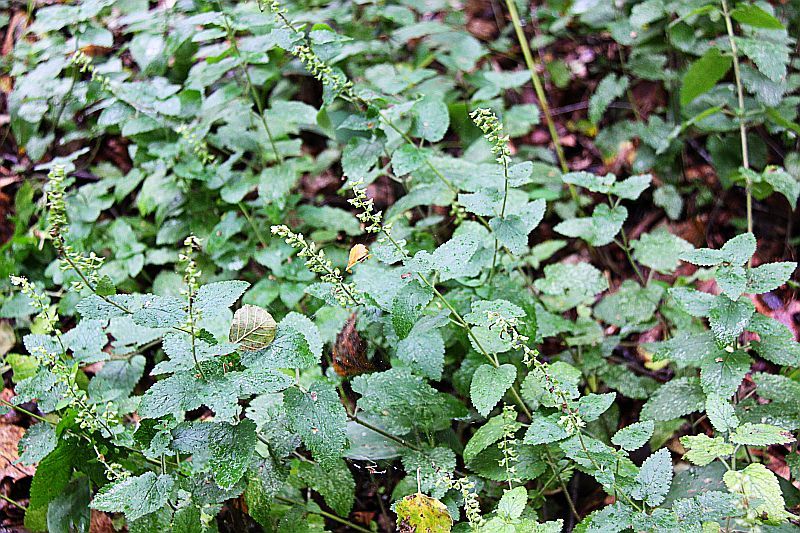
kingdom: Plantae
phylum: Tracheophyta
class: Magnoliopsida
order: Lamiales
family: Lamiaceae
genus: Teucrium
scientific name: Teucrium scorodonia
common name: Woodland germander
